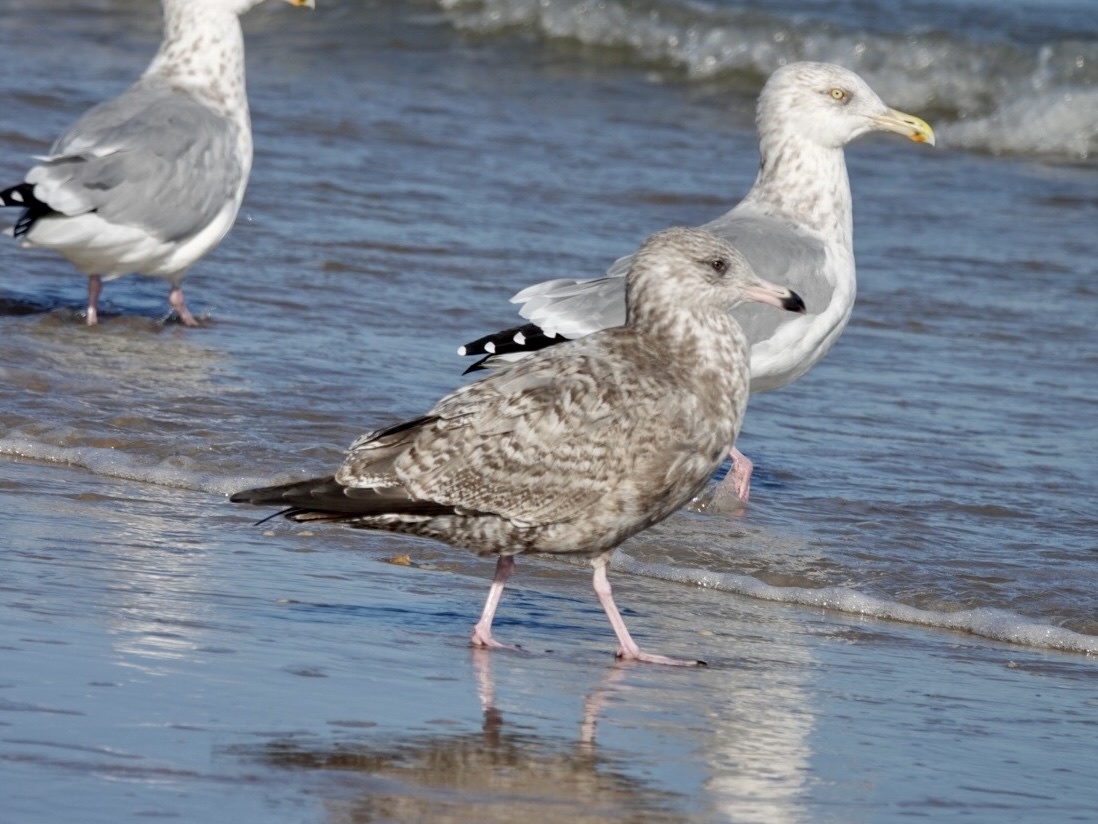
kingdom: Animalia
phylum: Chordata
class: Aves
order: Charadriiformes
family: Laridae
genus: Larus
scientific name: Larus argentatus
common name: Herring gull
